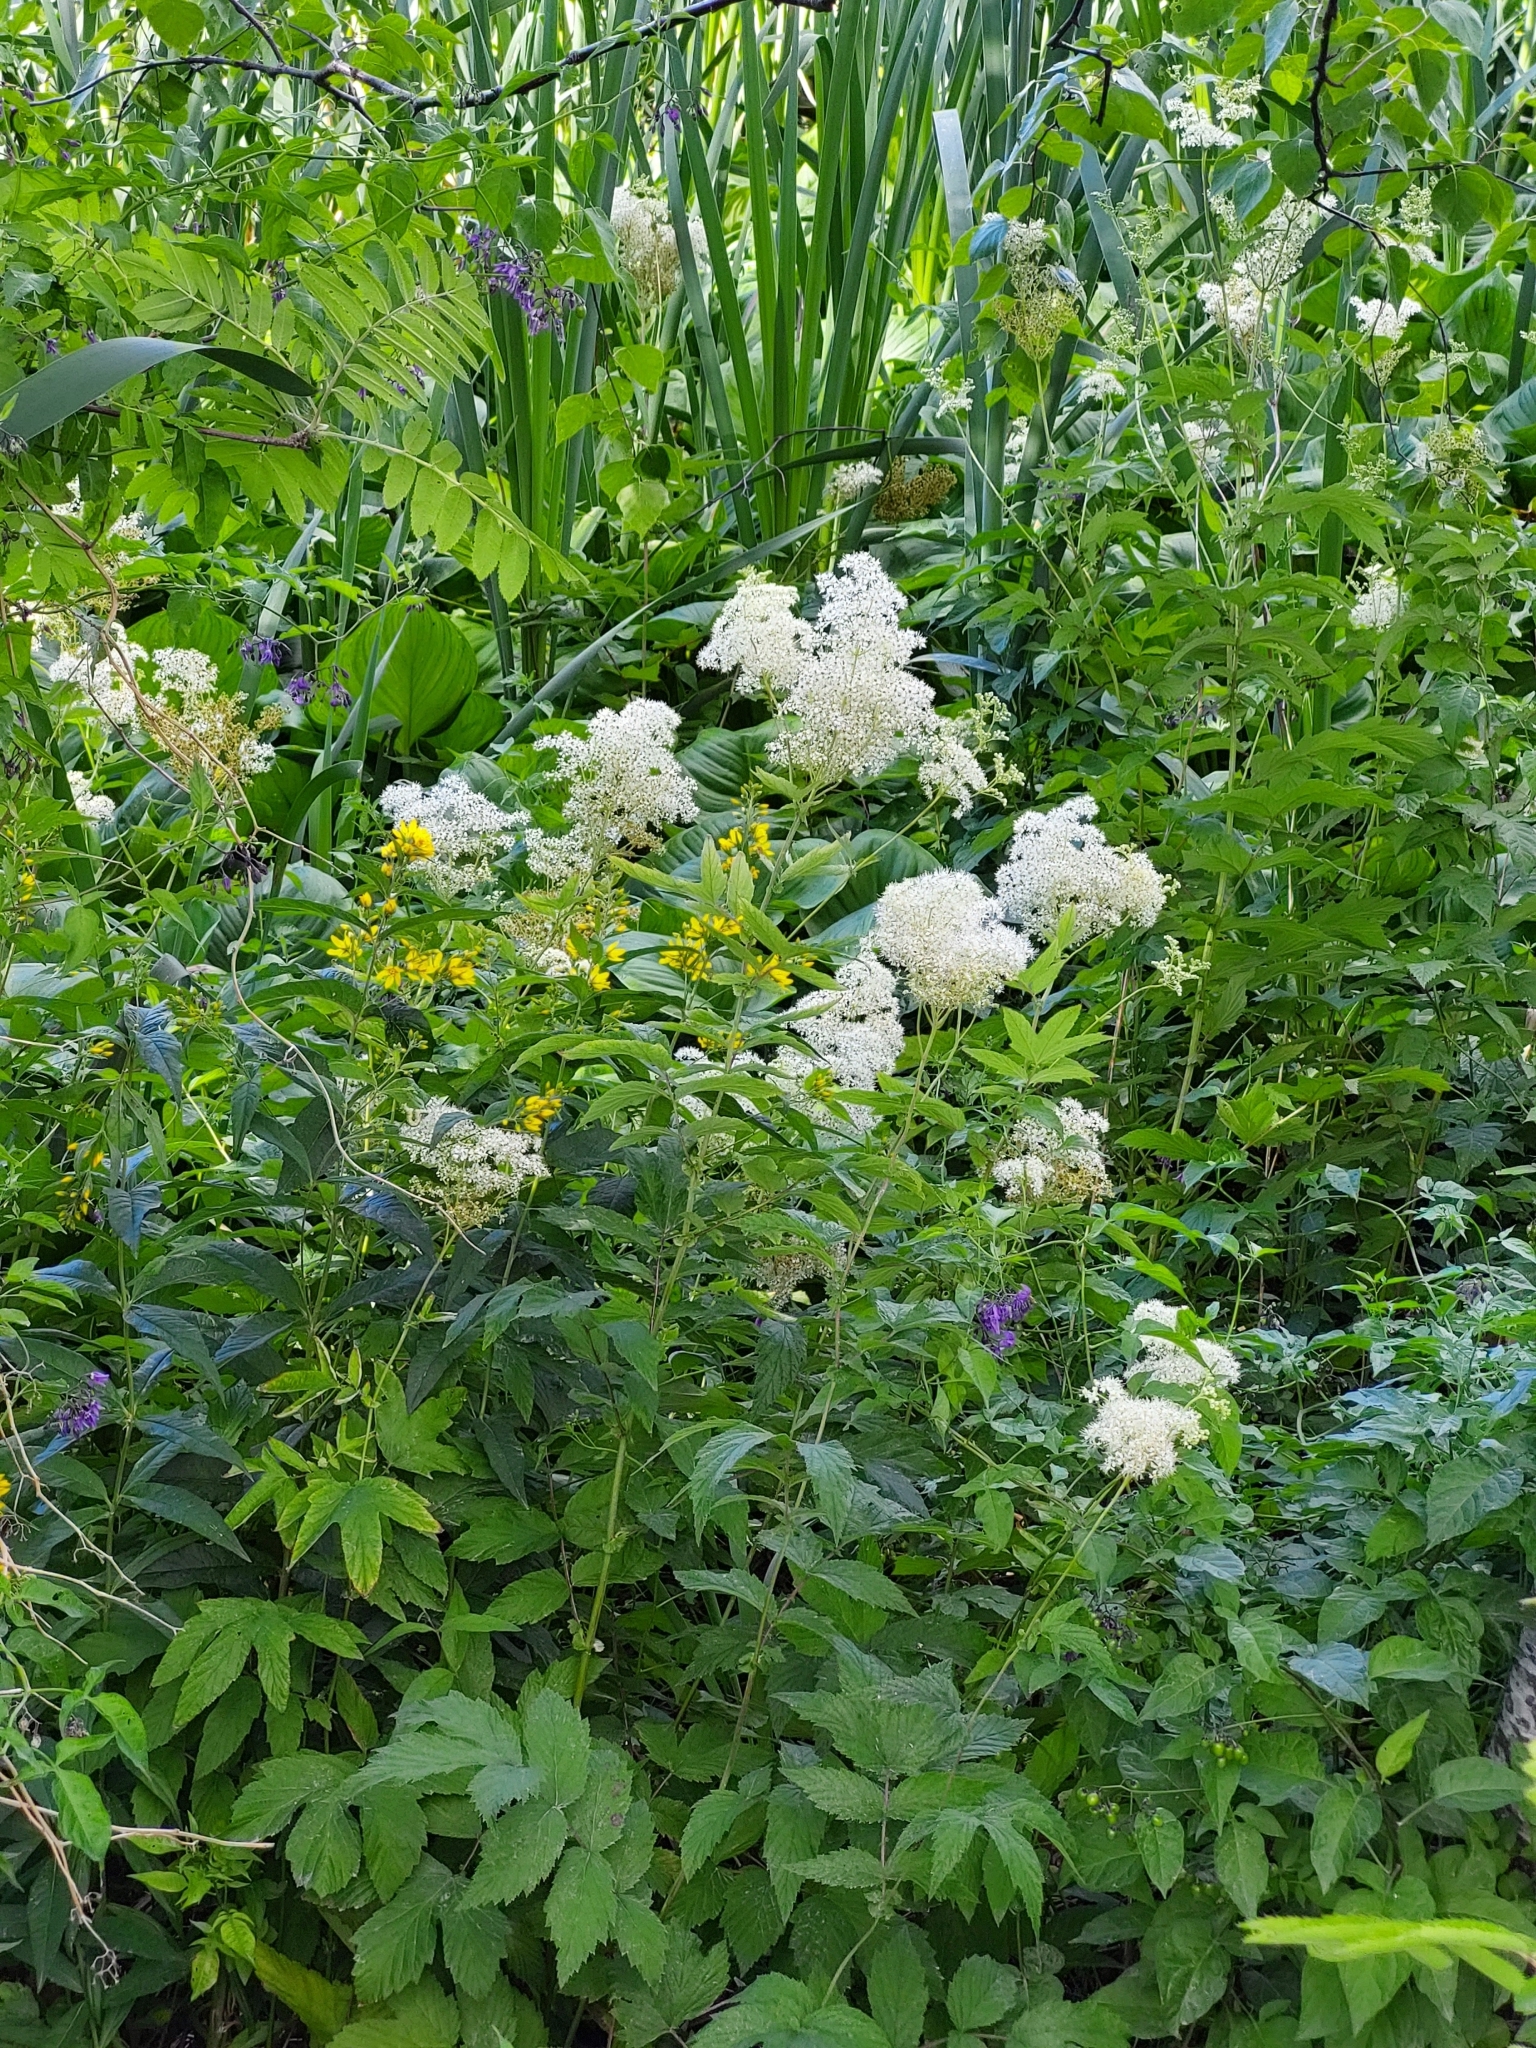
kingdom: Plantae
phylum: Tracheophyta
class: Magnoliopsida
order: Rosales
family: Rosaceae
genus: Filipendula
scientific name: Filipendula ulmaria
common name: Meadowsweet
